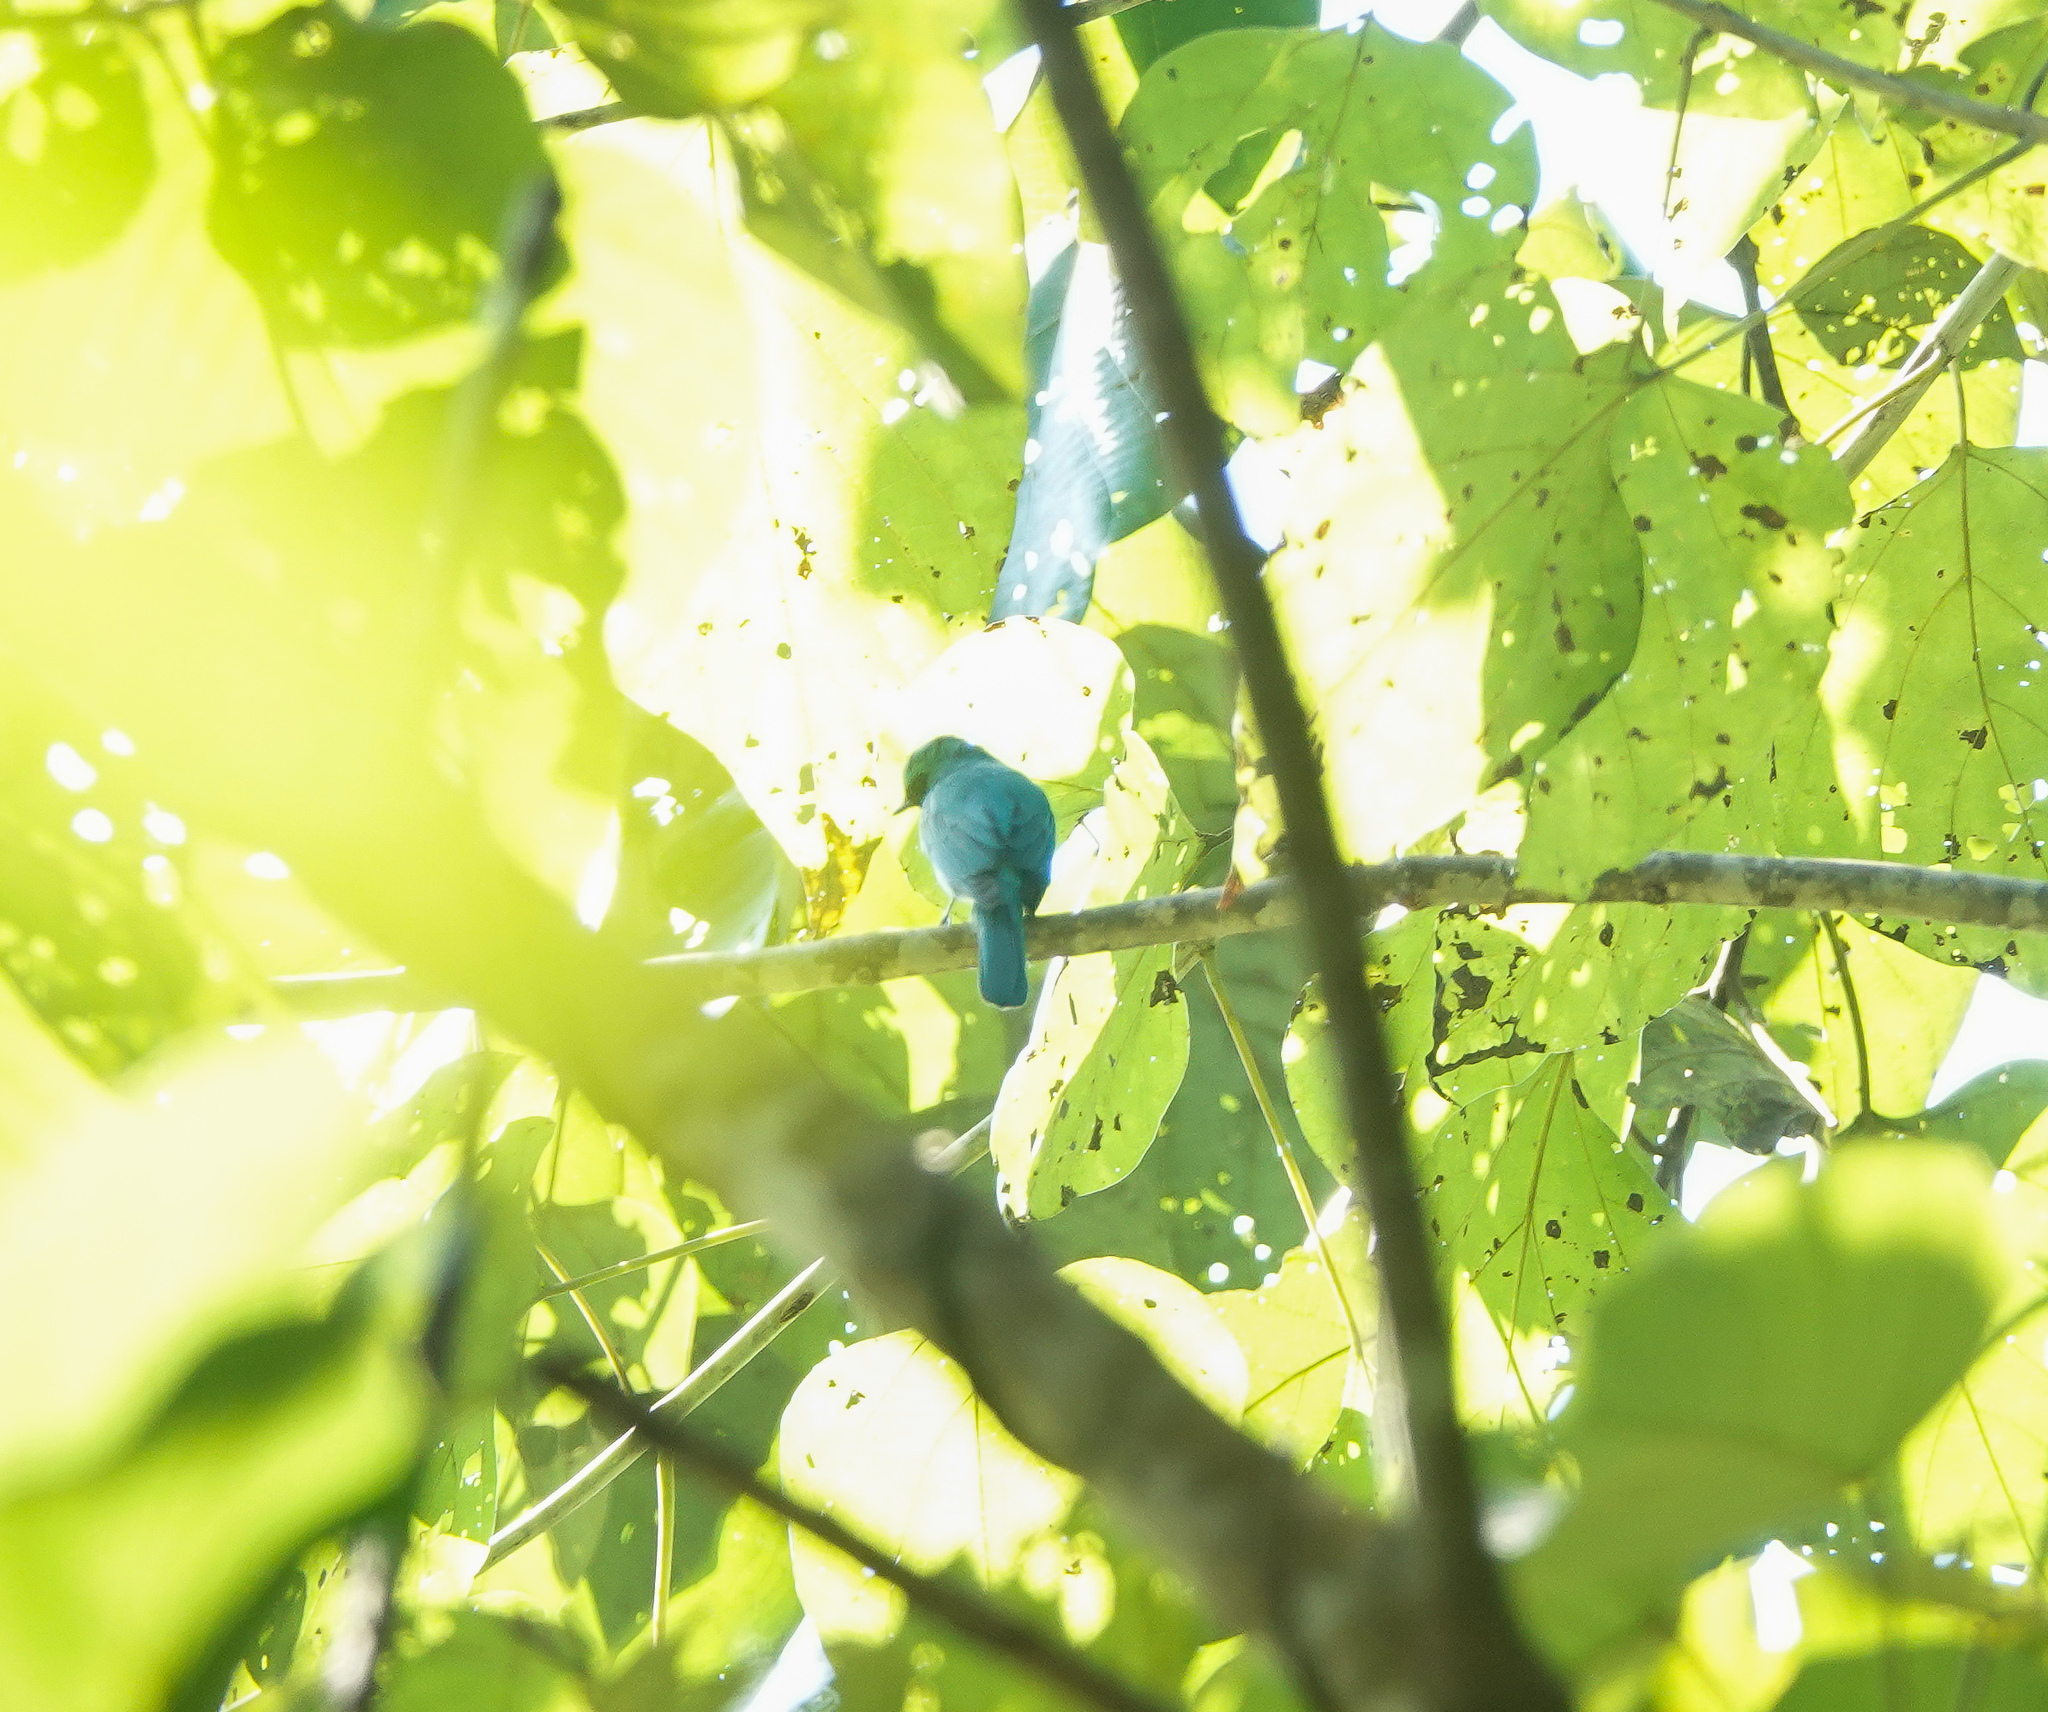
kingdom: Animalia
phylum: Chordata
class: Aves
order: Passeriformes
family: Muscicapidae
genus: Eumyias
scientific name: Eumyias thalassinus
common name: Verditer flycatcher
